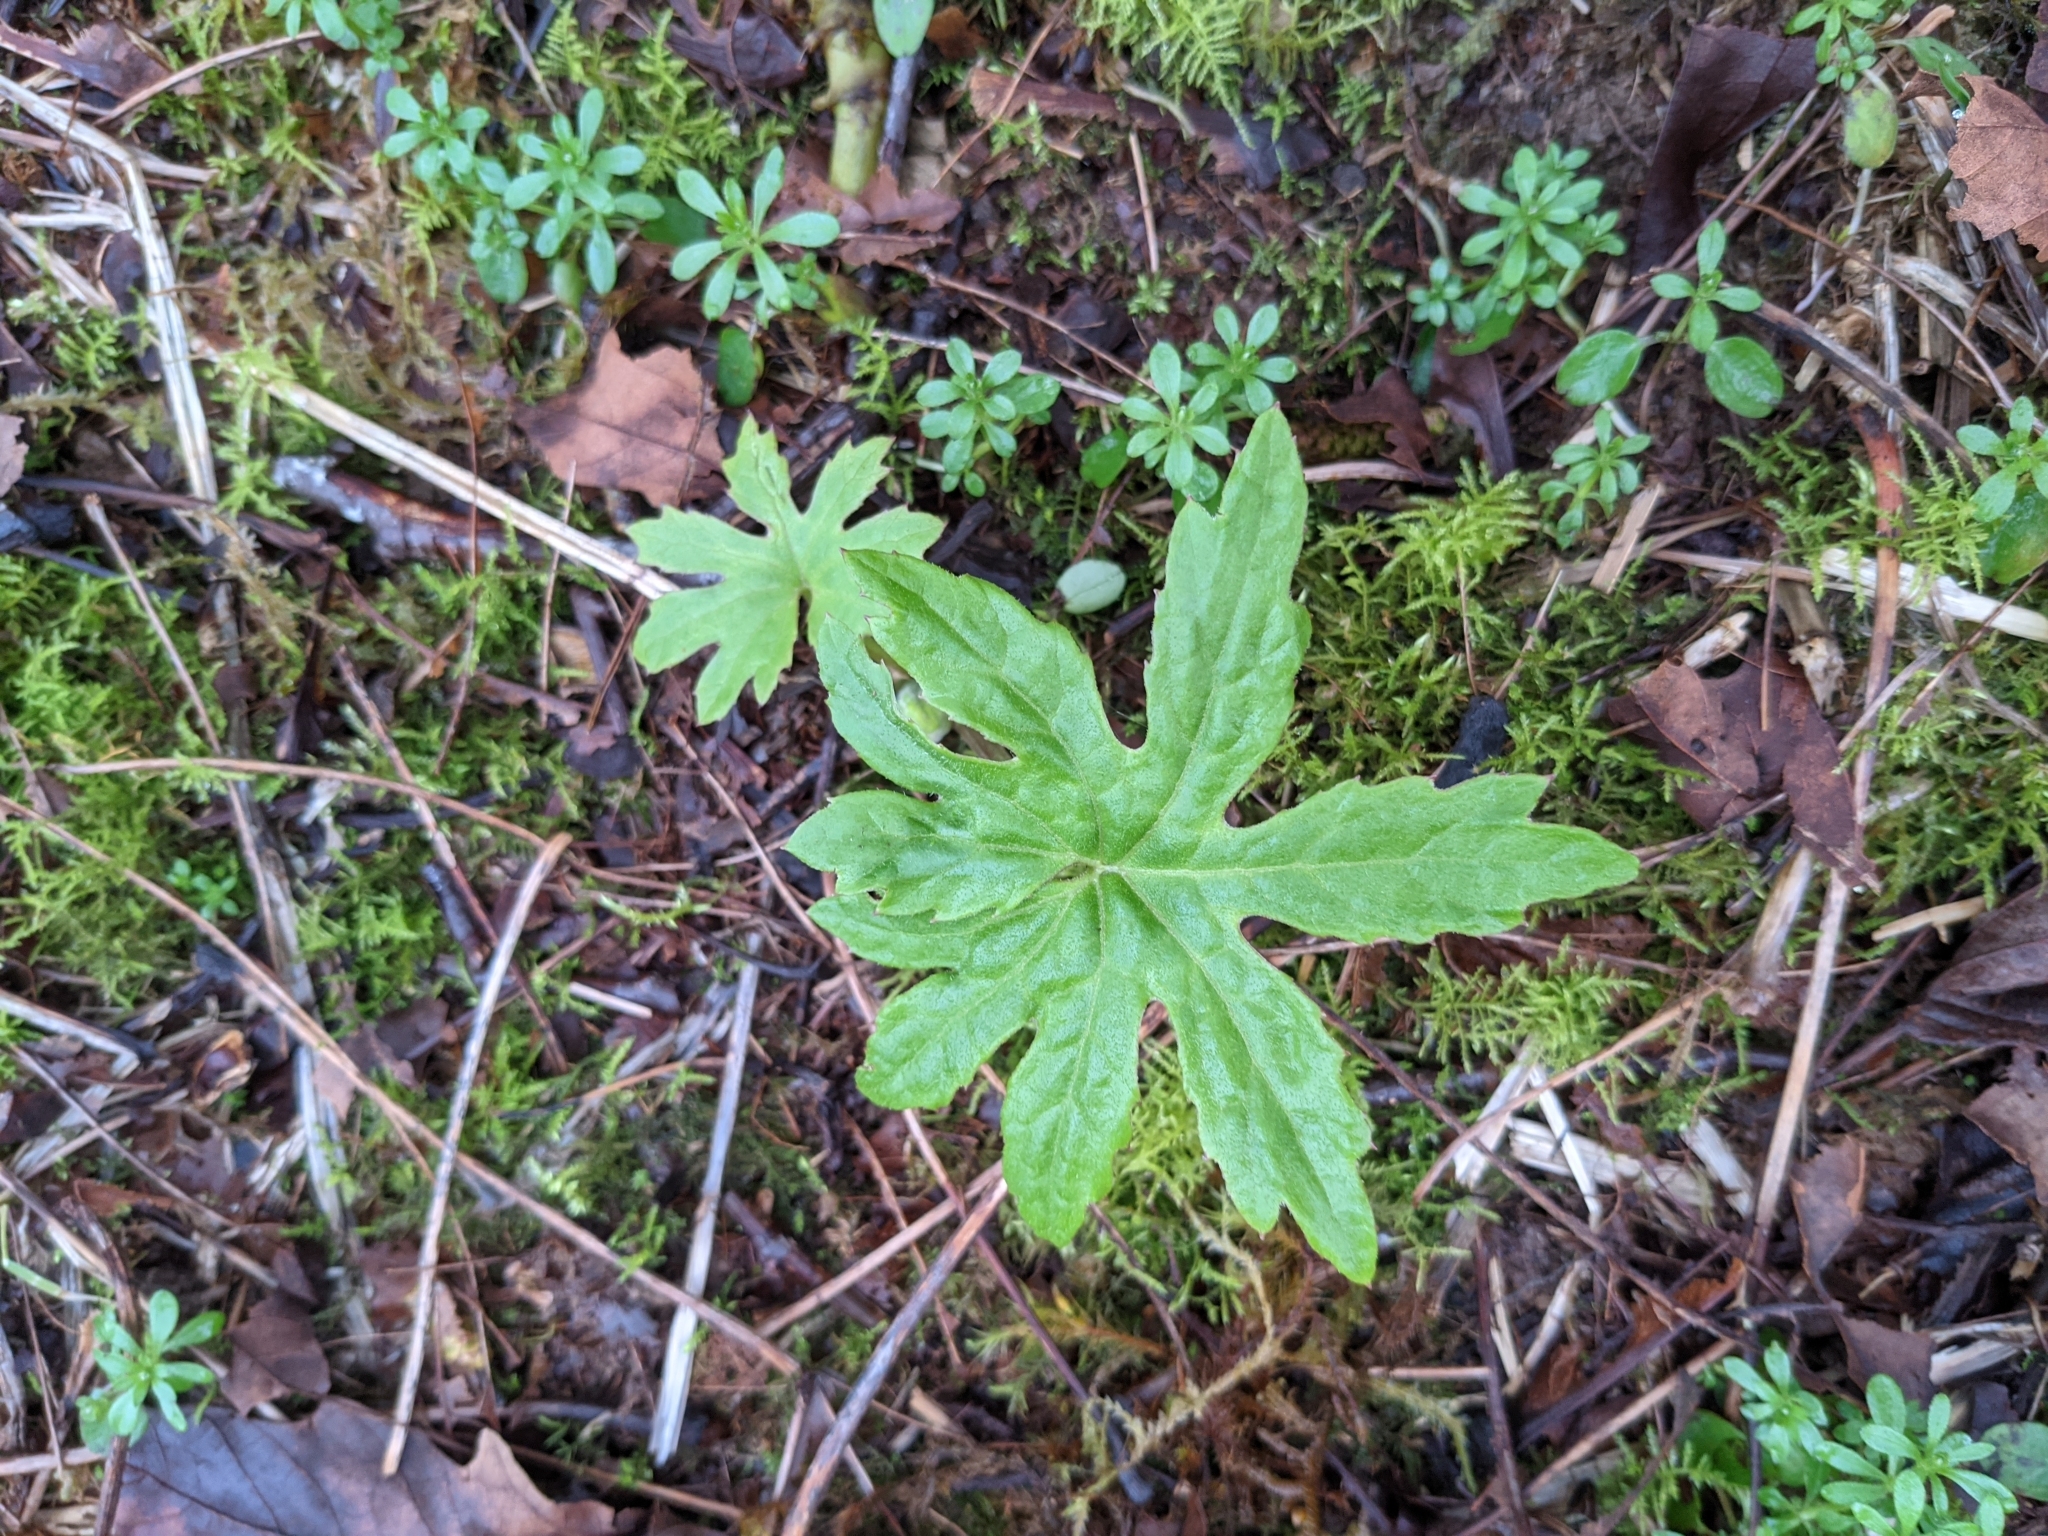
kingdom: Plantae
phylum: Tracheophyta
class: Magnoliopsida
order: Asterales
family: Asteraceae
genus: Petasites
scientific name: Petasites frigidus
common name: Arctic butterbur
